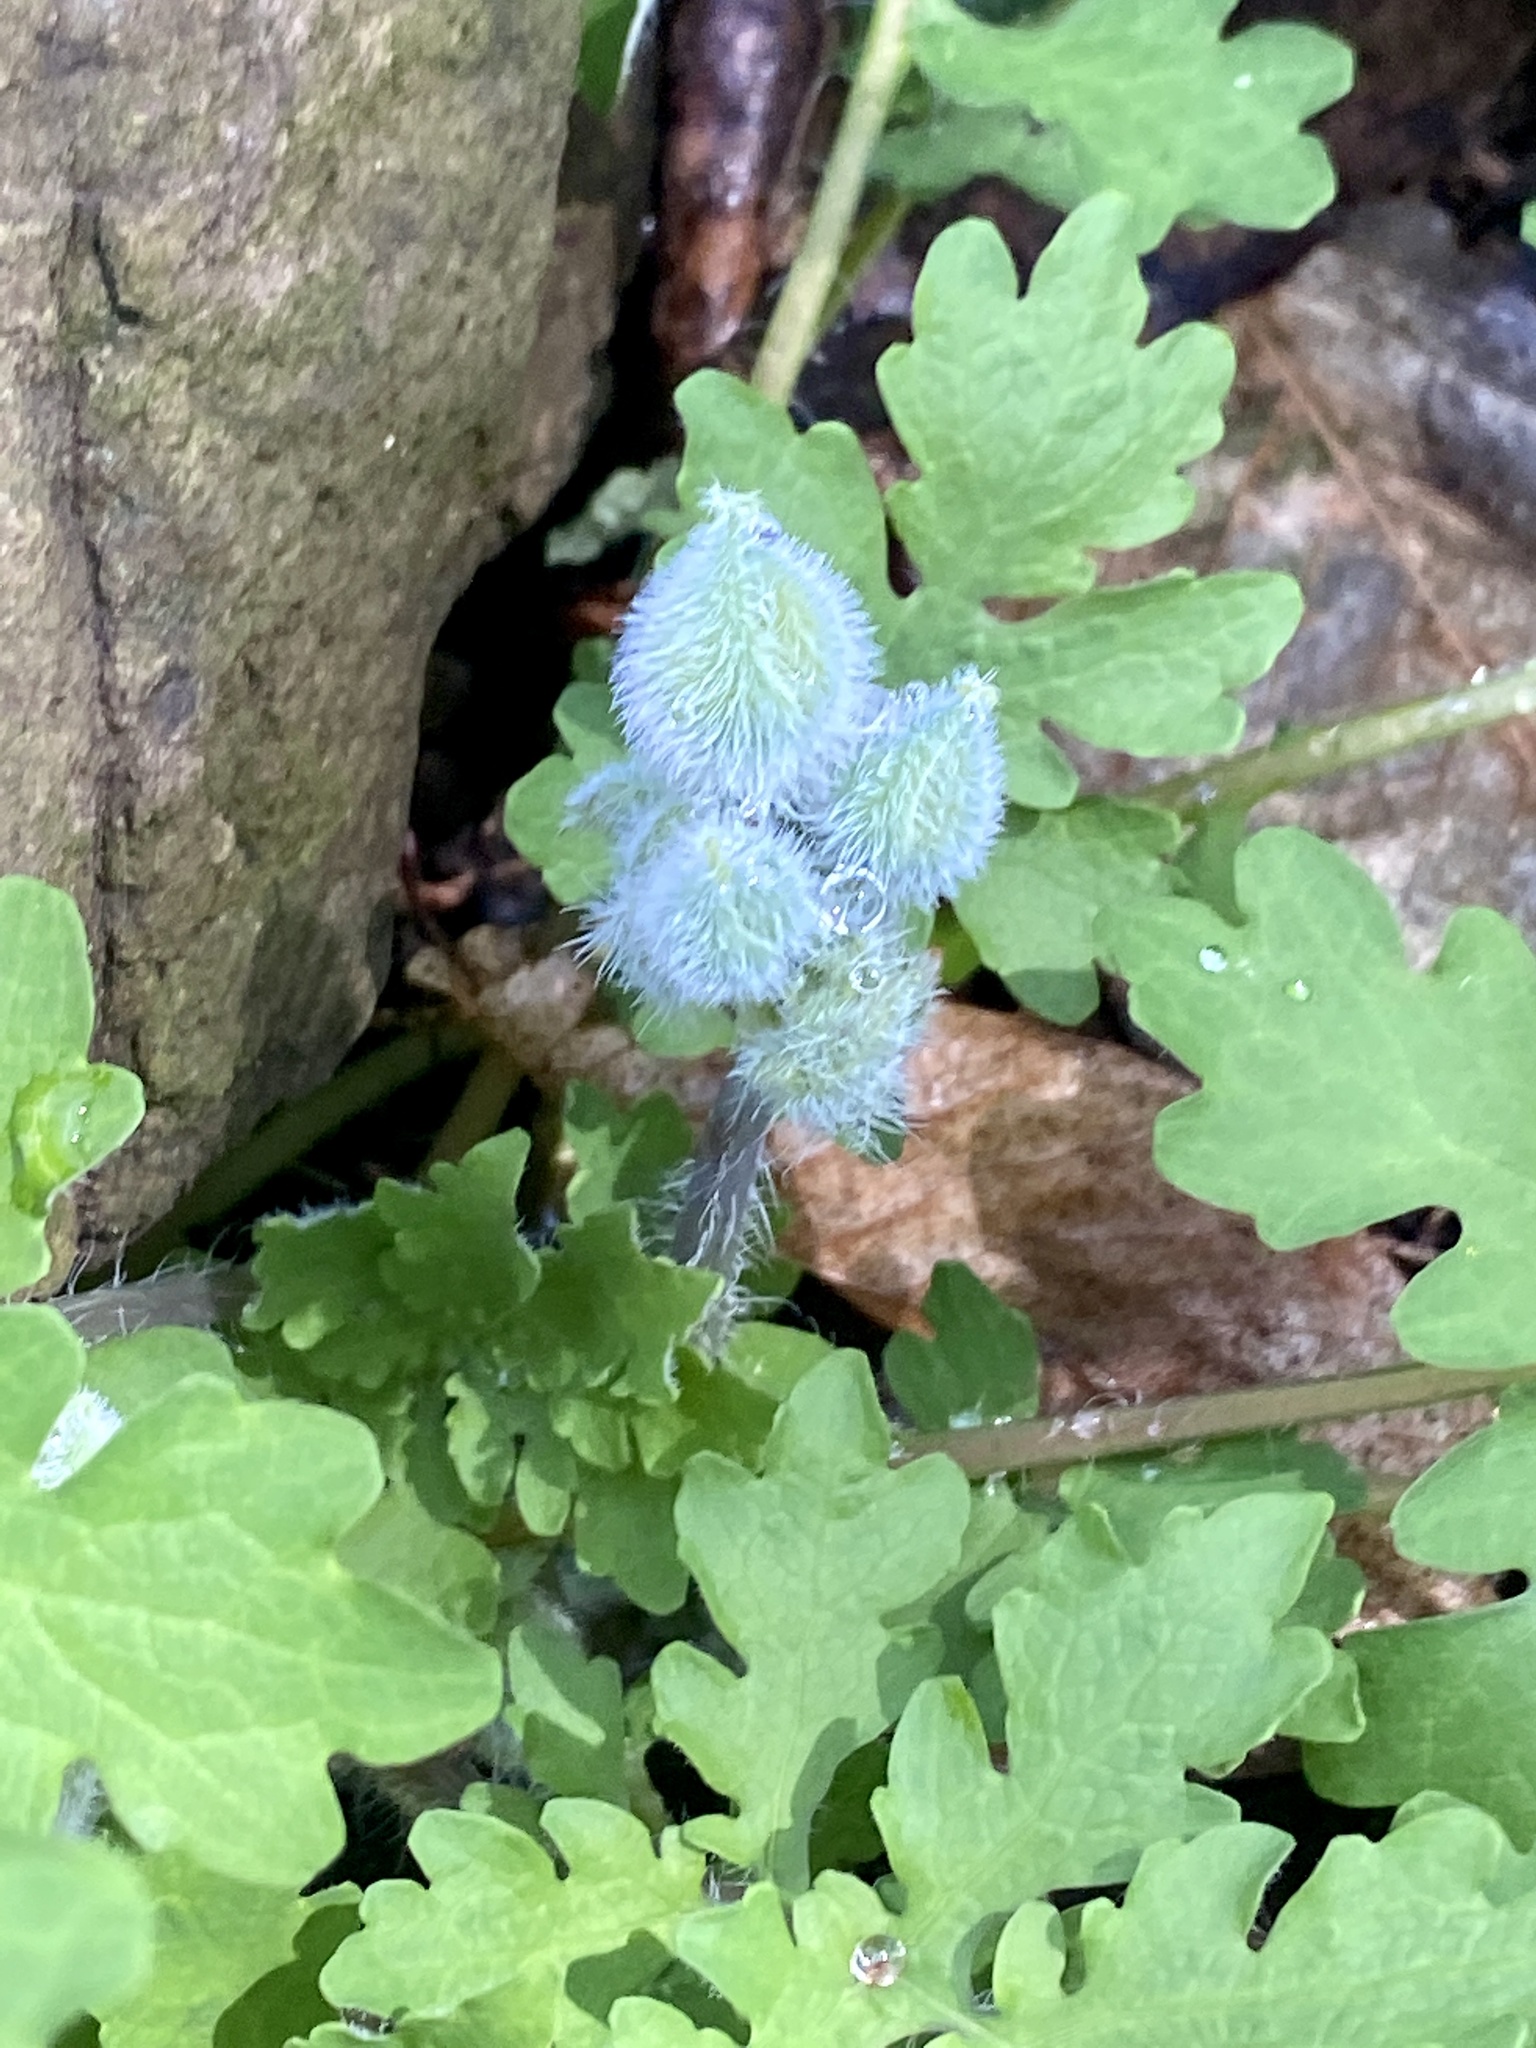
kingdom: Plantae
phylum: Tracheophyta
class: Magnoliopsida
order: Ranunculales
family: Papaveraceae
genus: Stylophorum
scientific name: Stylophorum diphyllum
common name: Celandine poppy
